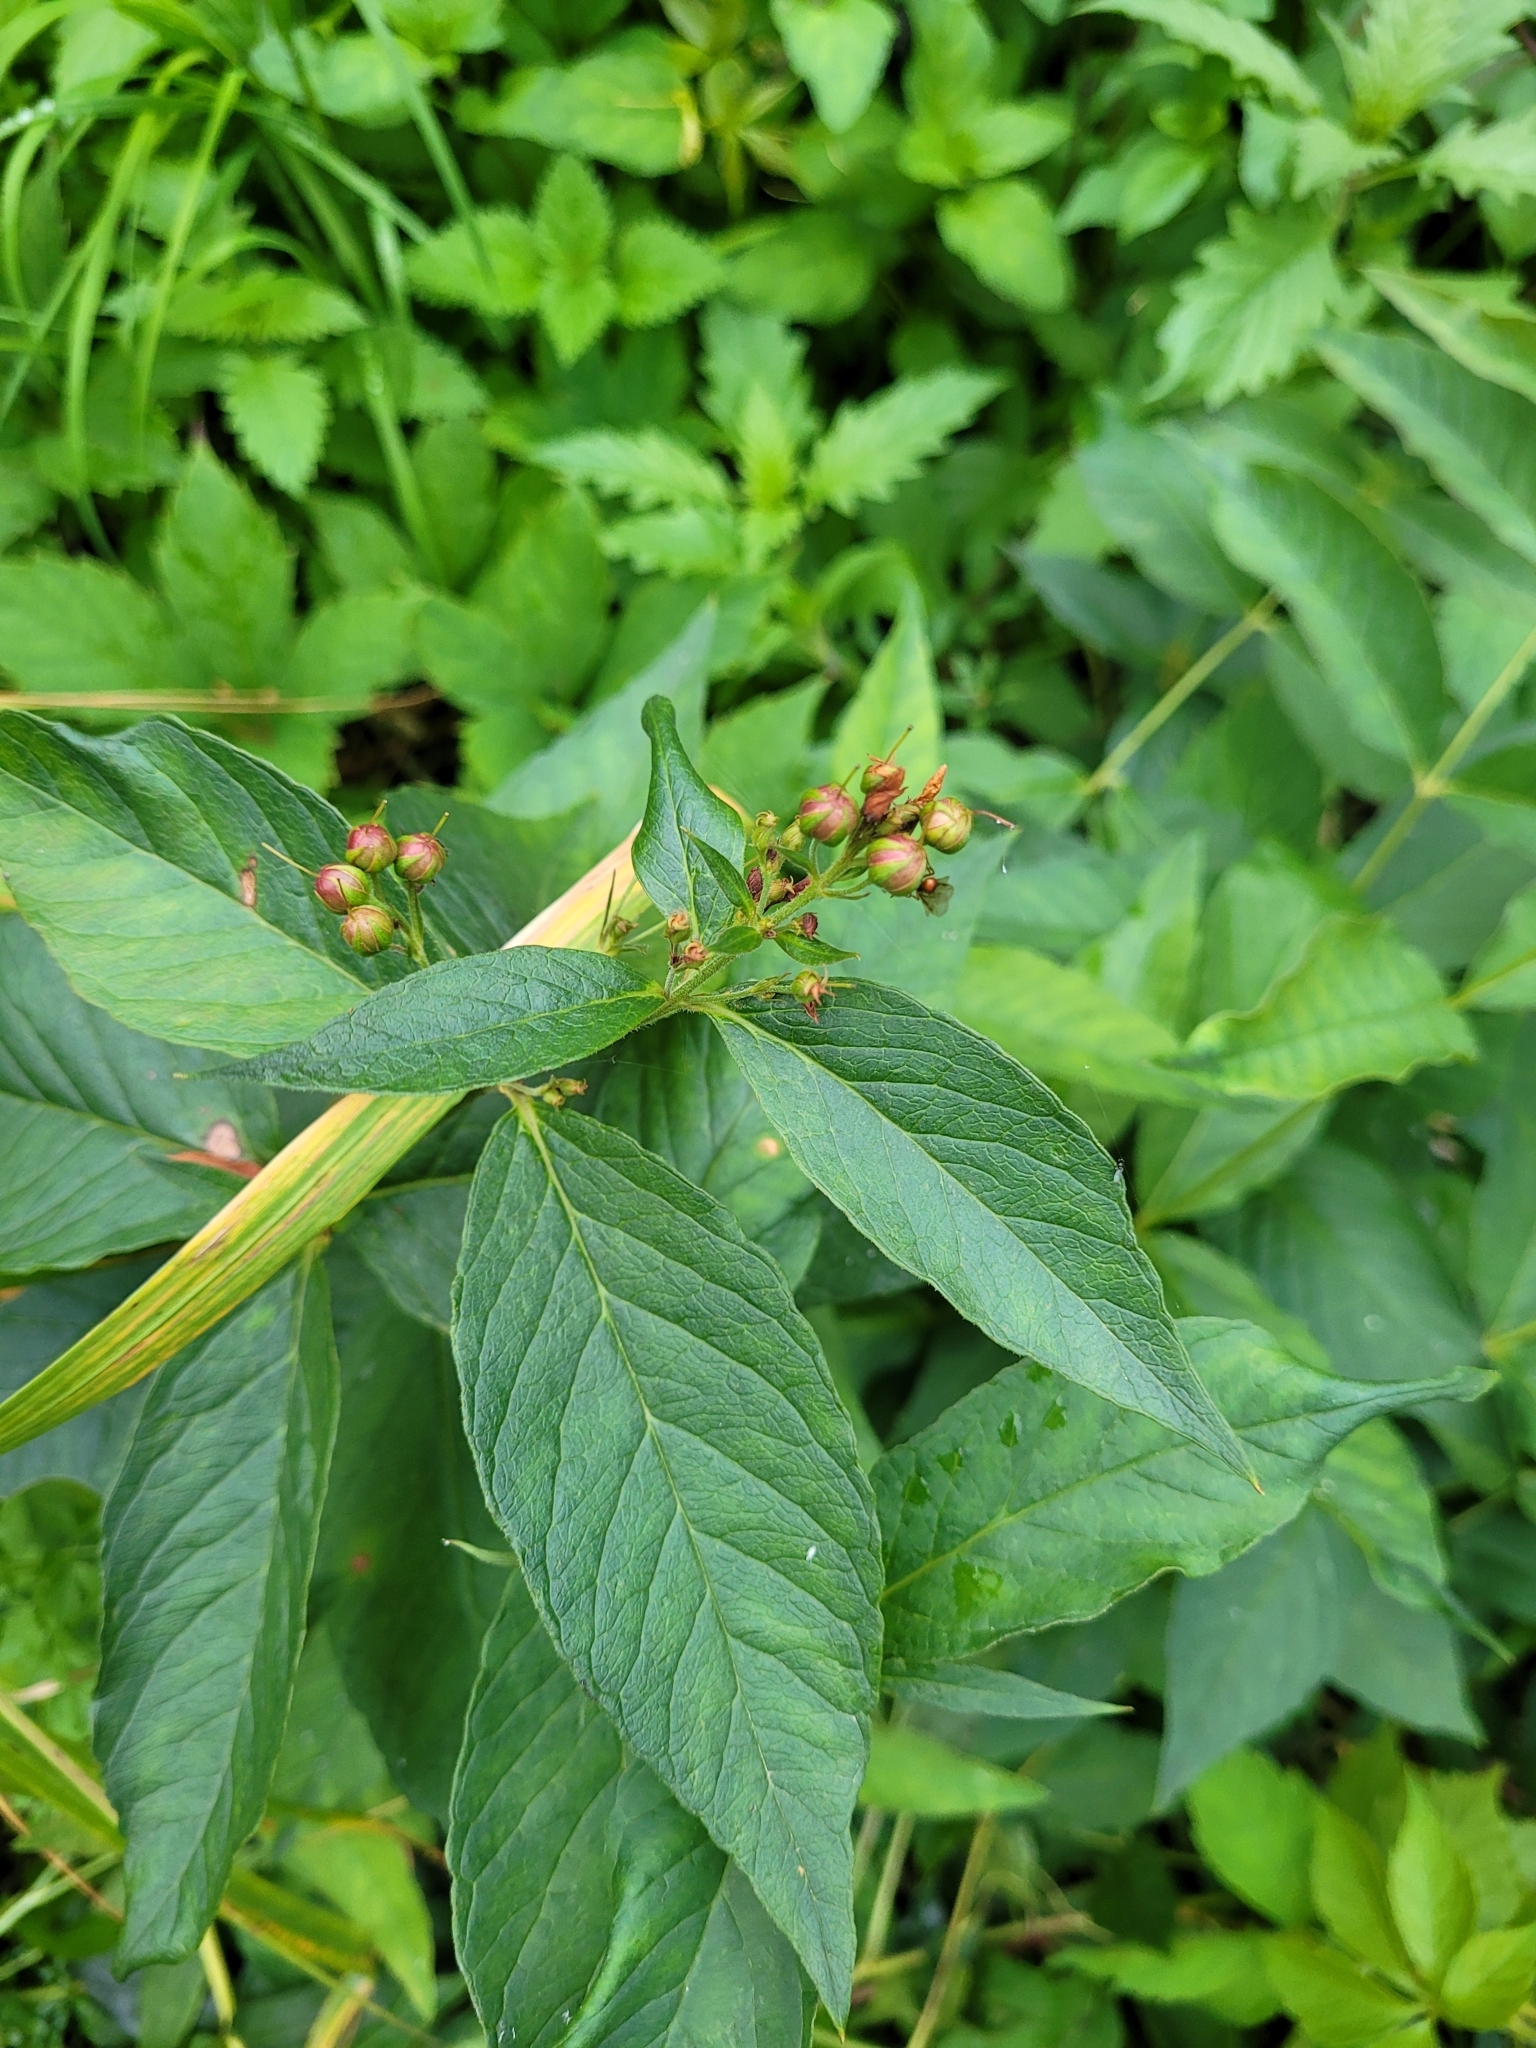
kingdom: Plantae
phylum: Tracheophyta
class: Magnoliopsida
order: Ericales
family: Primulaceae
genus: Lysimachia
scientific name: Lysimachia vulgaris
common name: Yellow loosestrife
